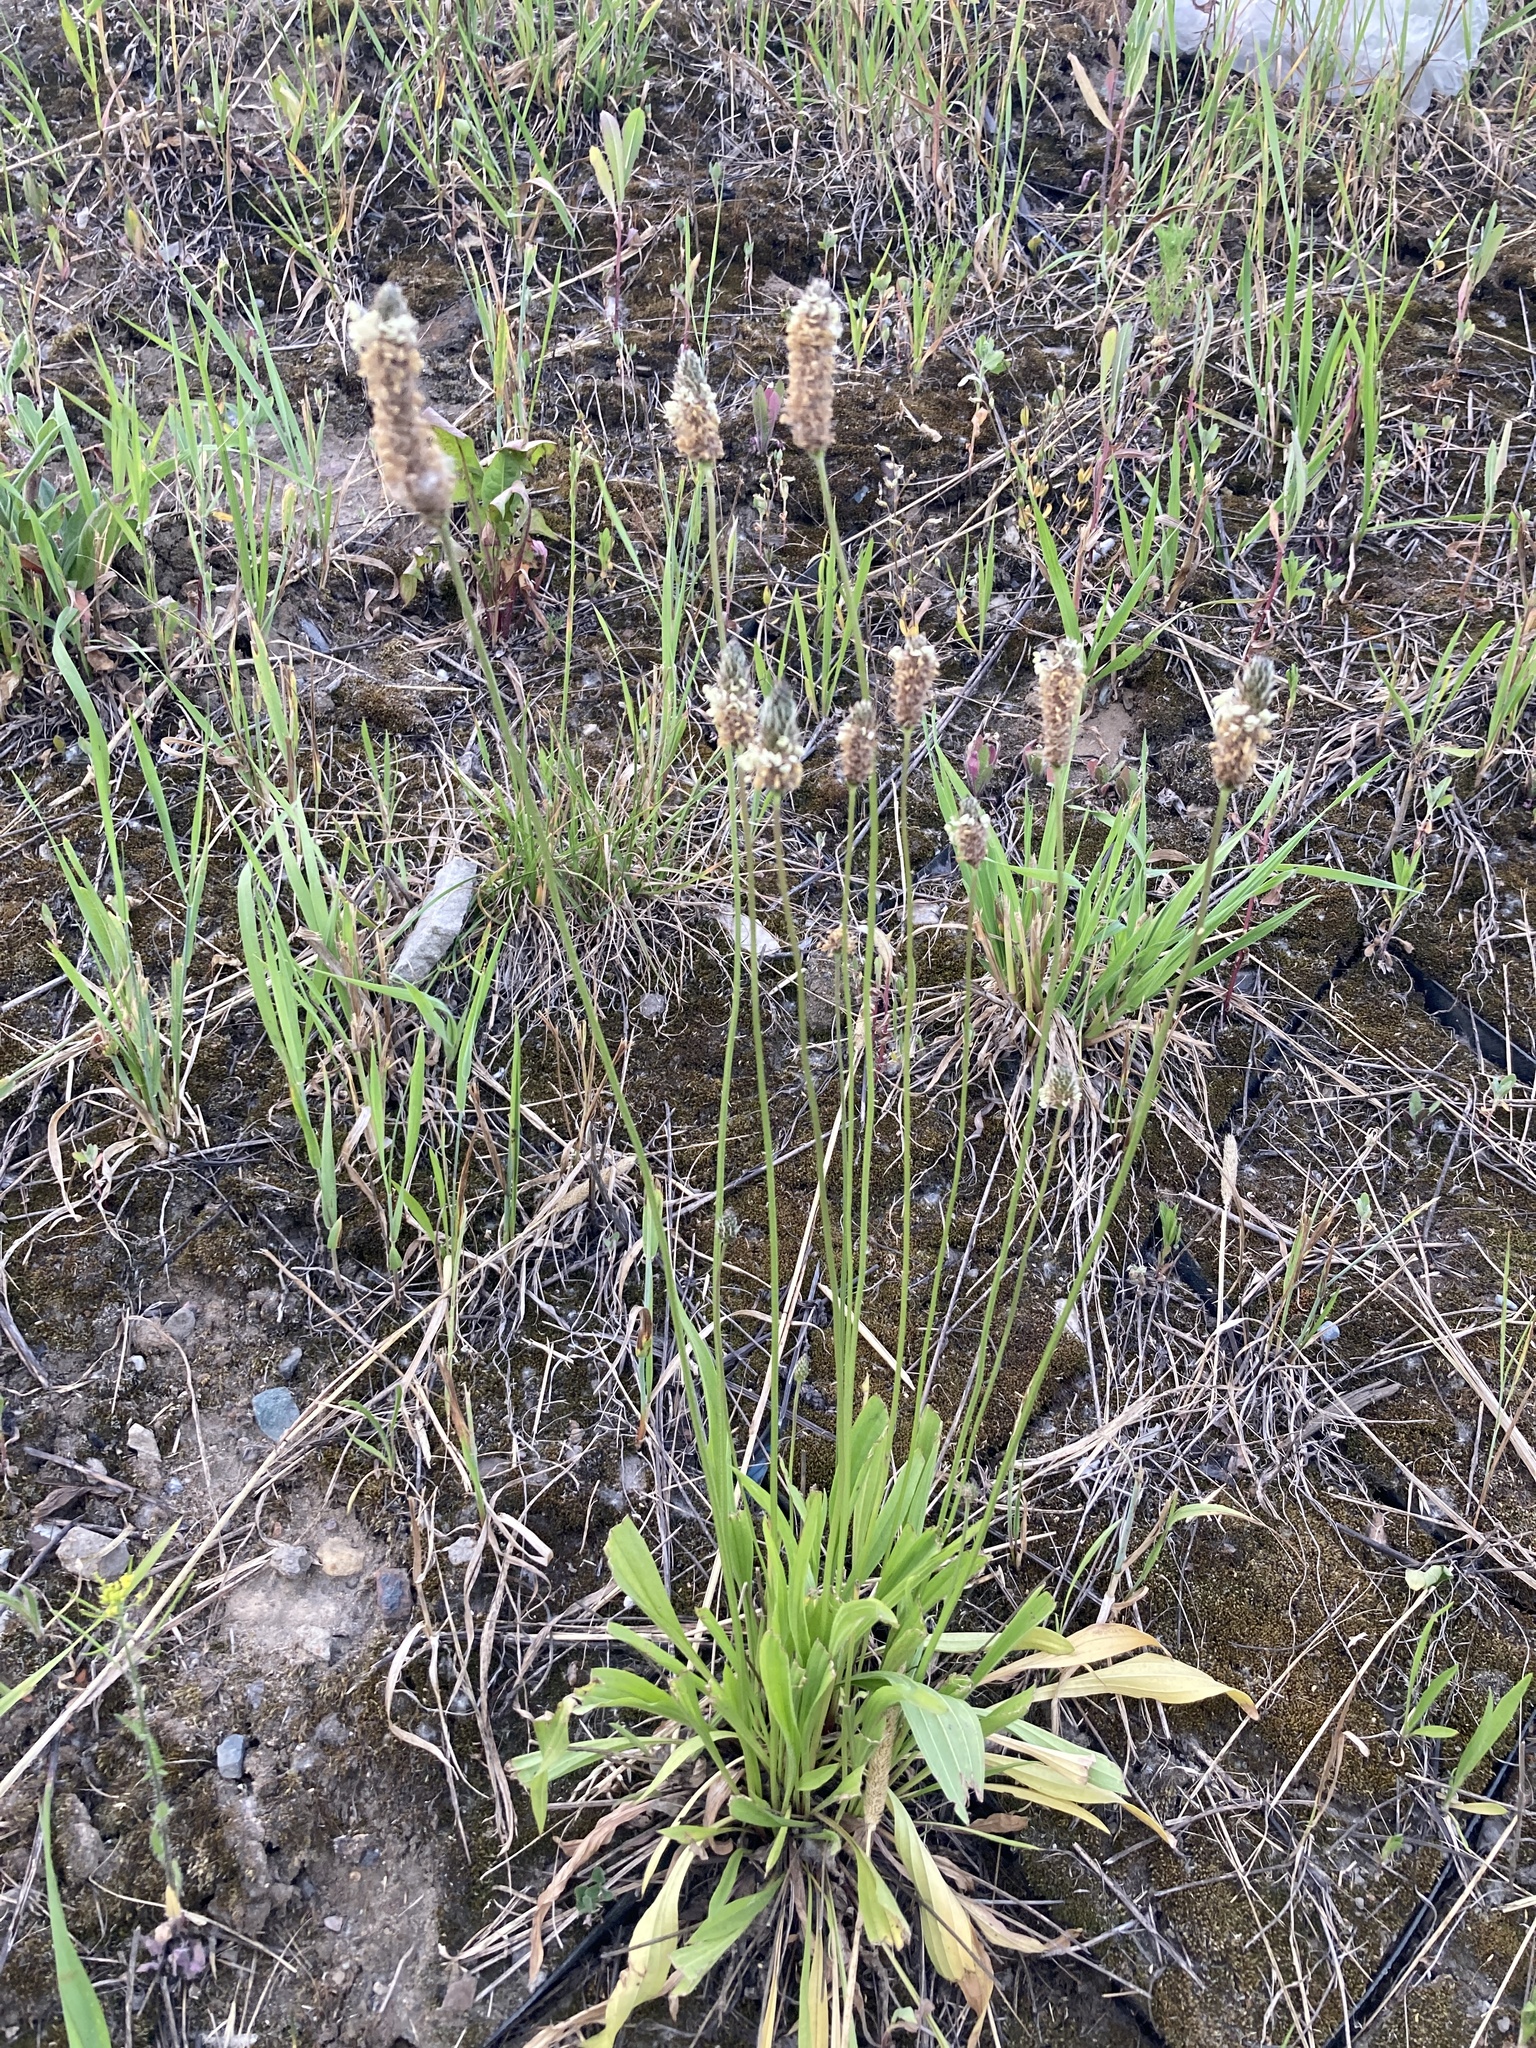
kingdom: Plantae
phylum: Tracheophyta
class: Magnoliopsida
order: Lamiales
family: Plantaginaceae
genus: Plantago
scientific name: Plantago lanceolata
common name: Ribwort plantain
